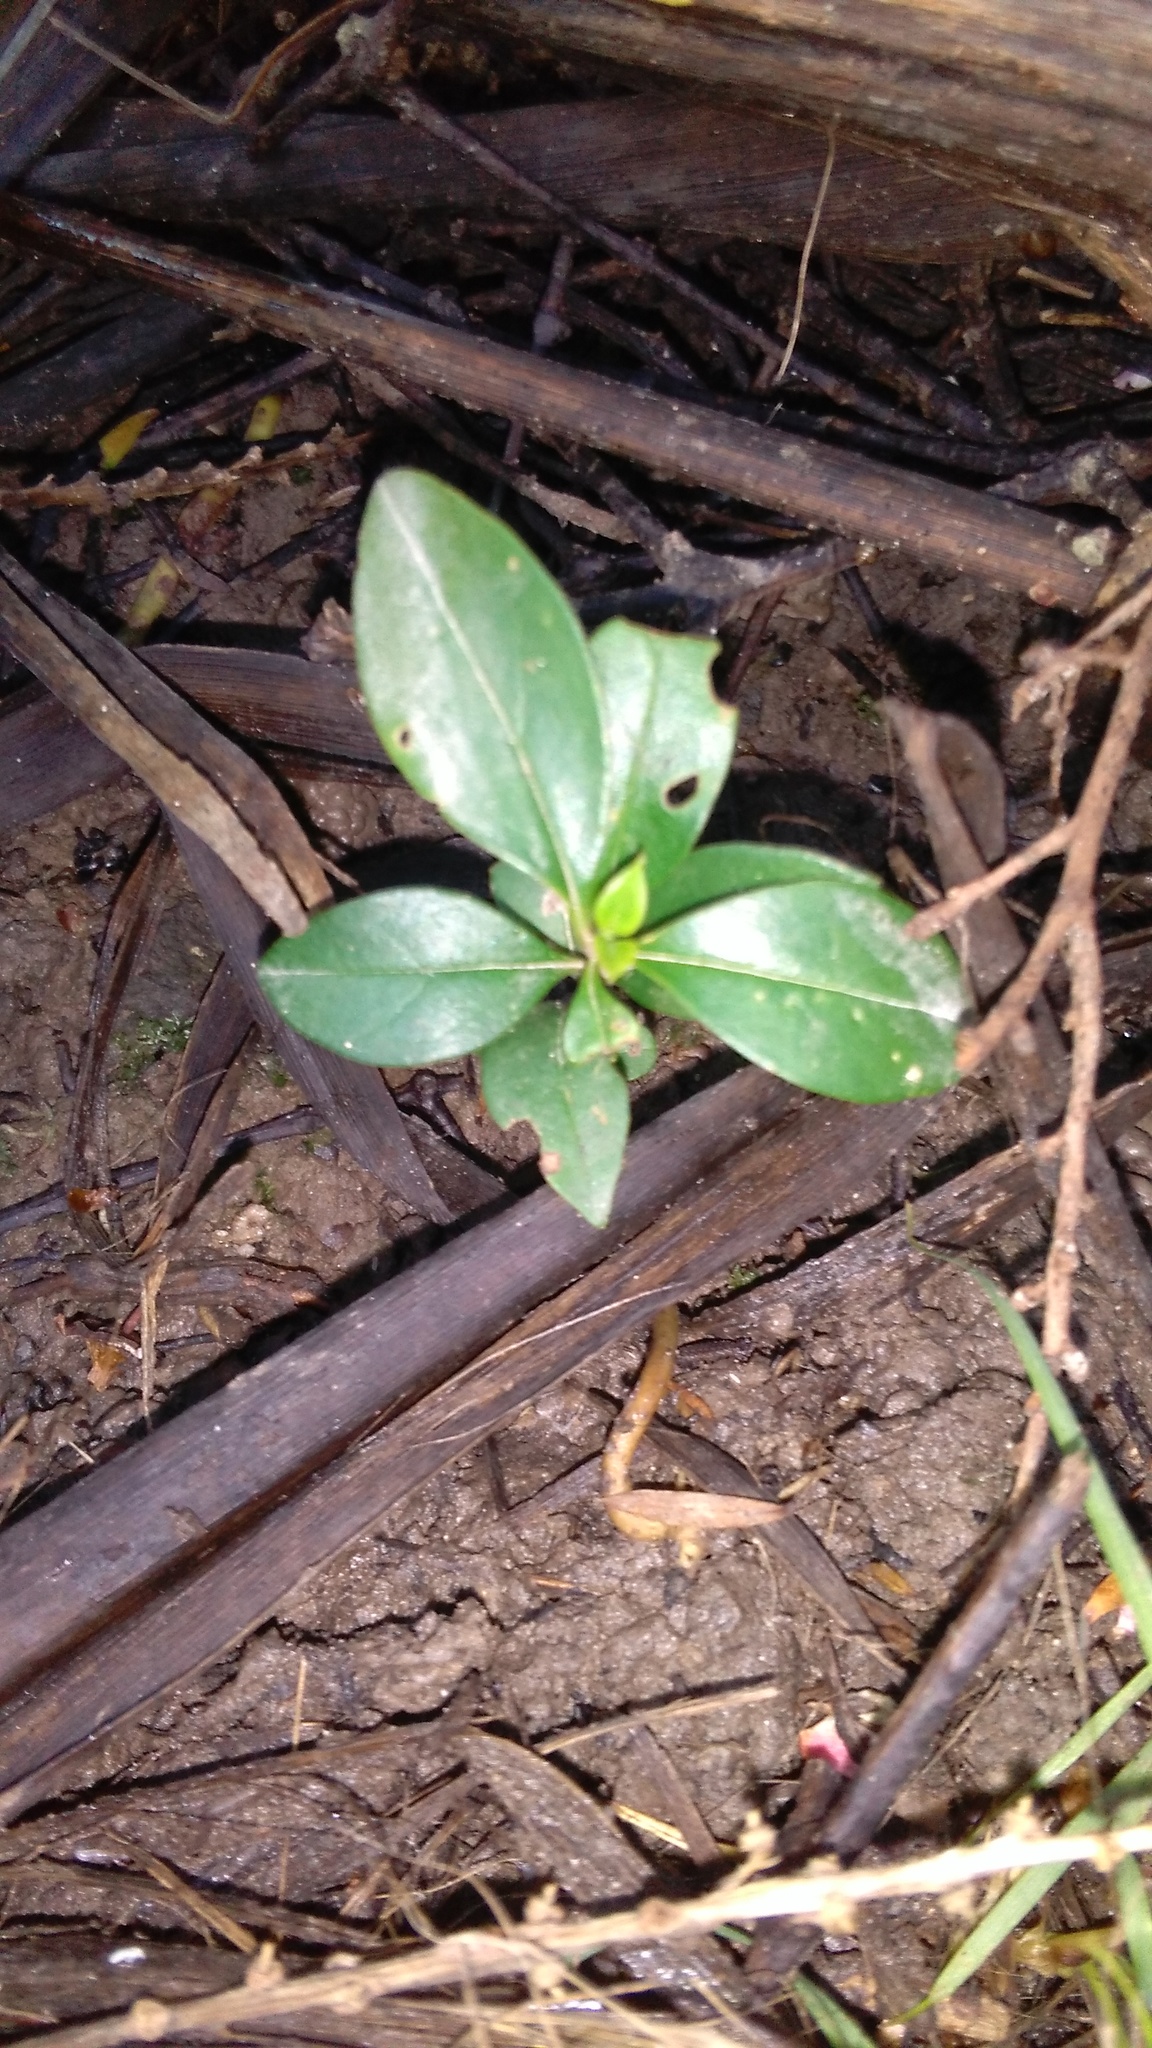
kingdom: Plantae
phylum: Tracheophyta
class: Magnoliopsida
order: Lamiales
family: Oleaceae
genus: Ligustrum
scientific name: Ligustrum lucidum
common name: Glossy privet
